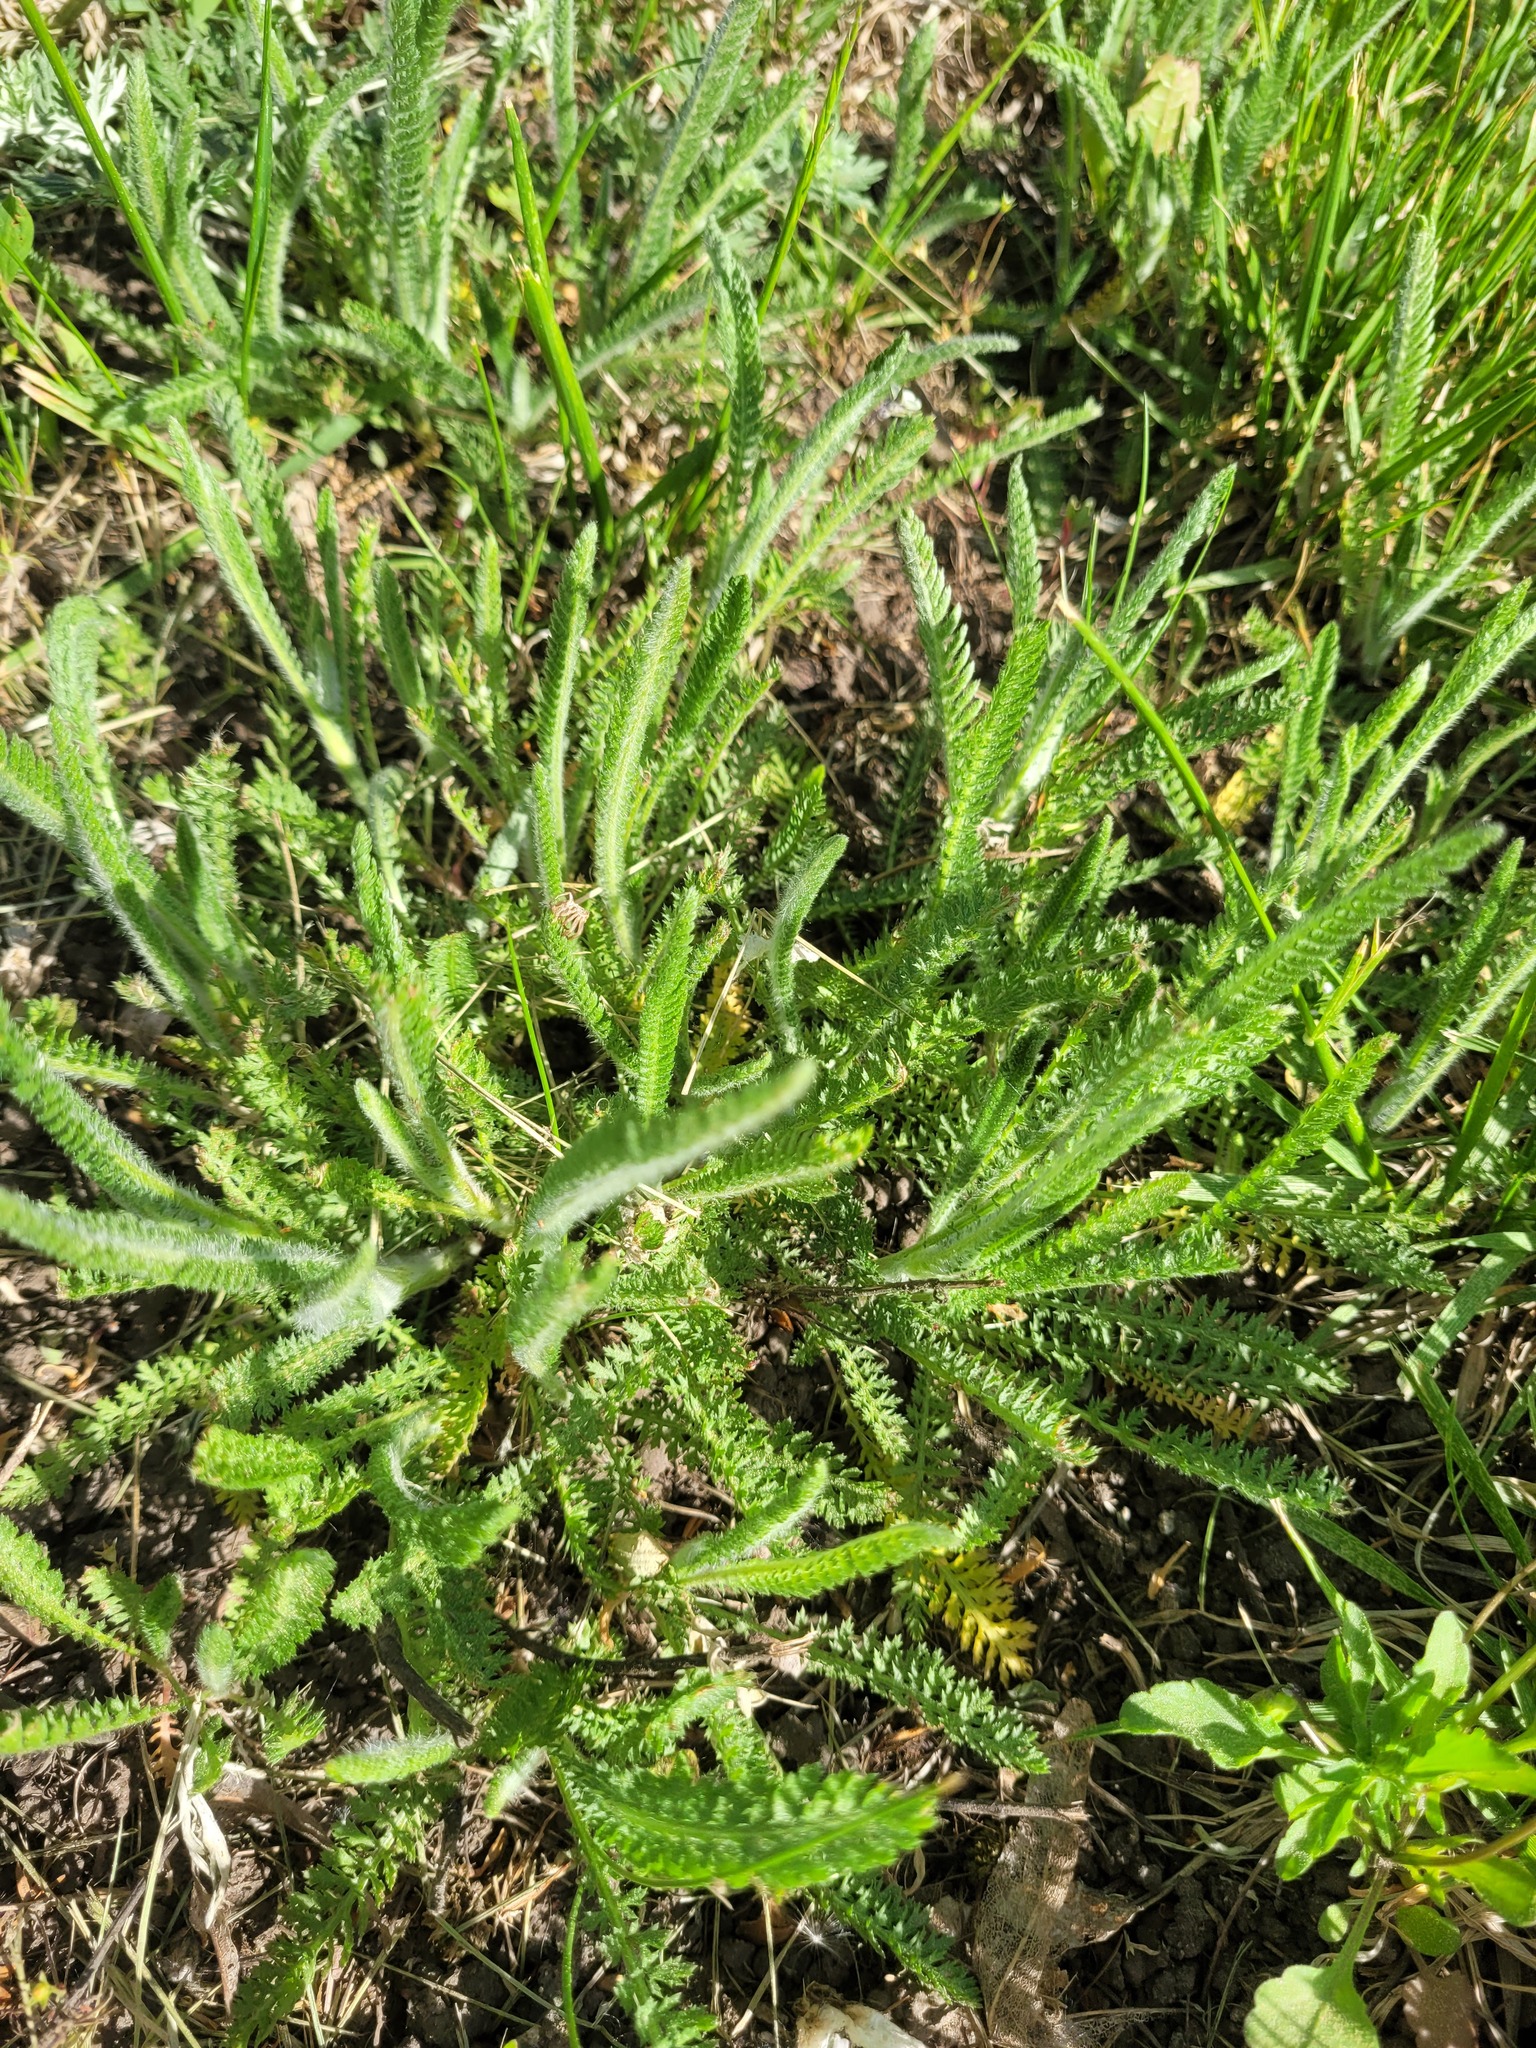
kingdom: Plantae
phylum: Tracheophyta
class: Magnoliopsida
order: Asterales
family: Asteraceae
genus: Achillea
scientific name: Achillea setacea
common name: Bristly yarrow
